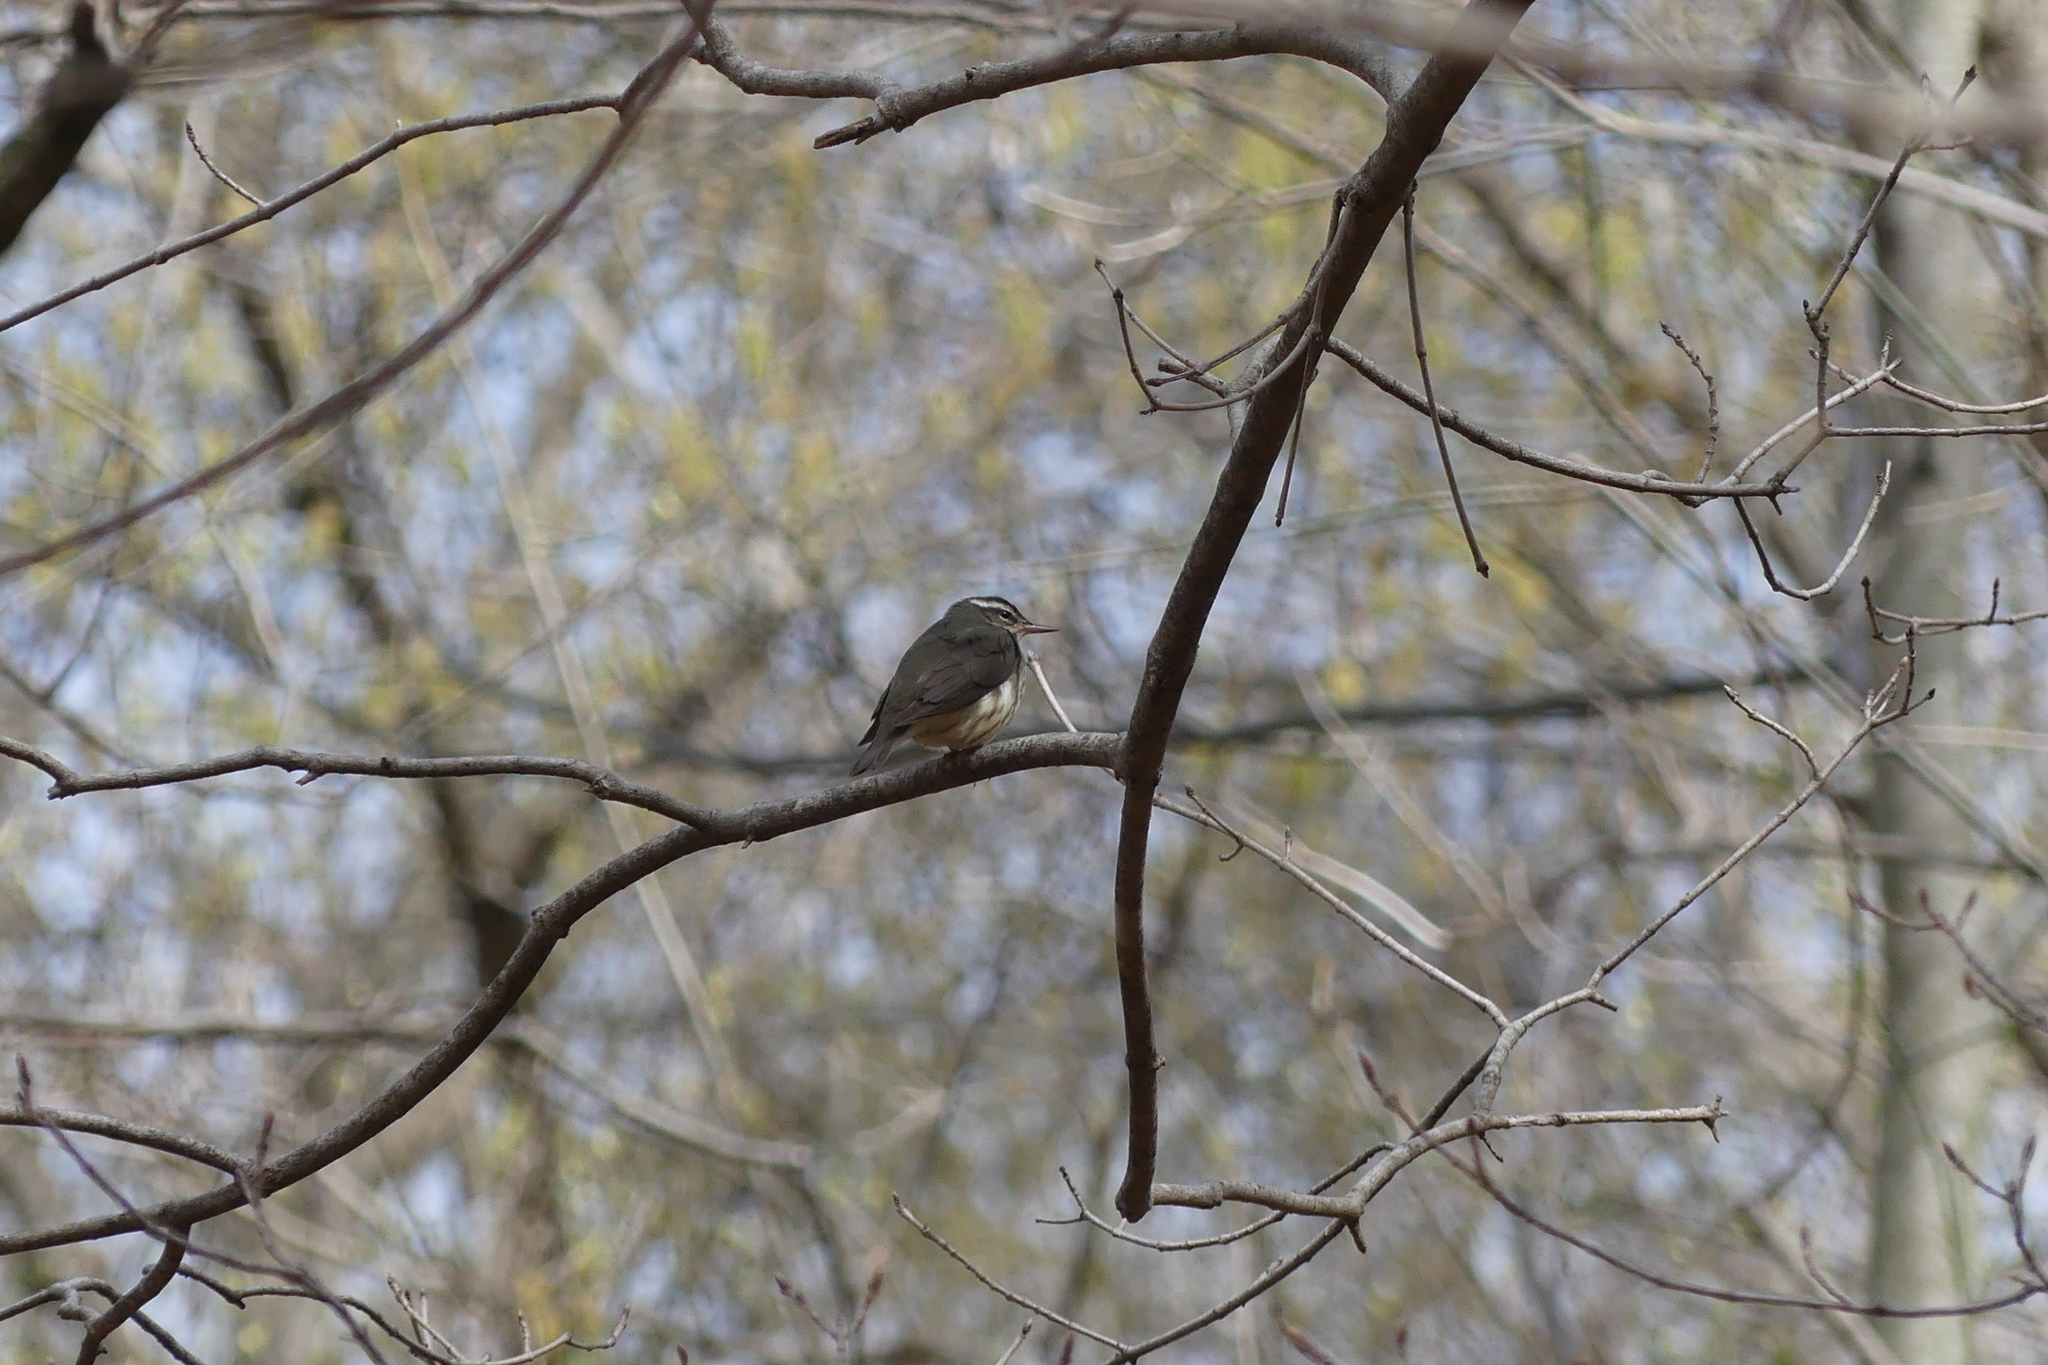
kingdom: Animalia
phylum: Chordata
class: Aves
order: Passeriformes
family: Parulidae
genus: Parkesia
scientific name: Parkesia motacilla
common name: Louisiana waterthrush
